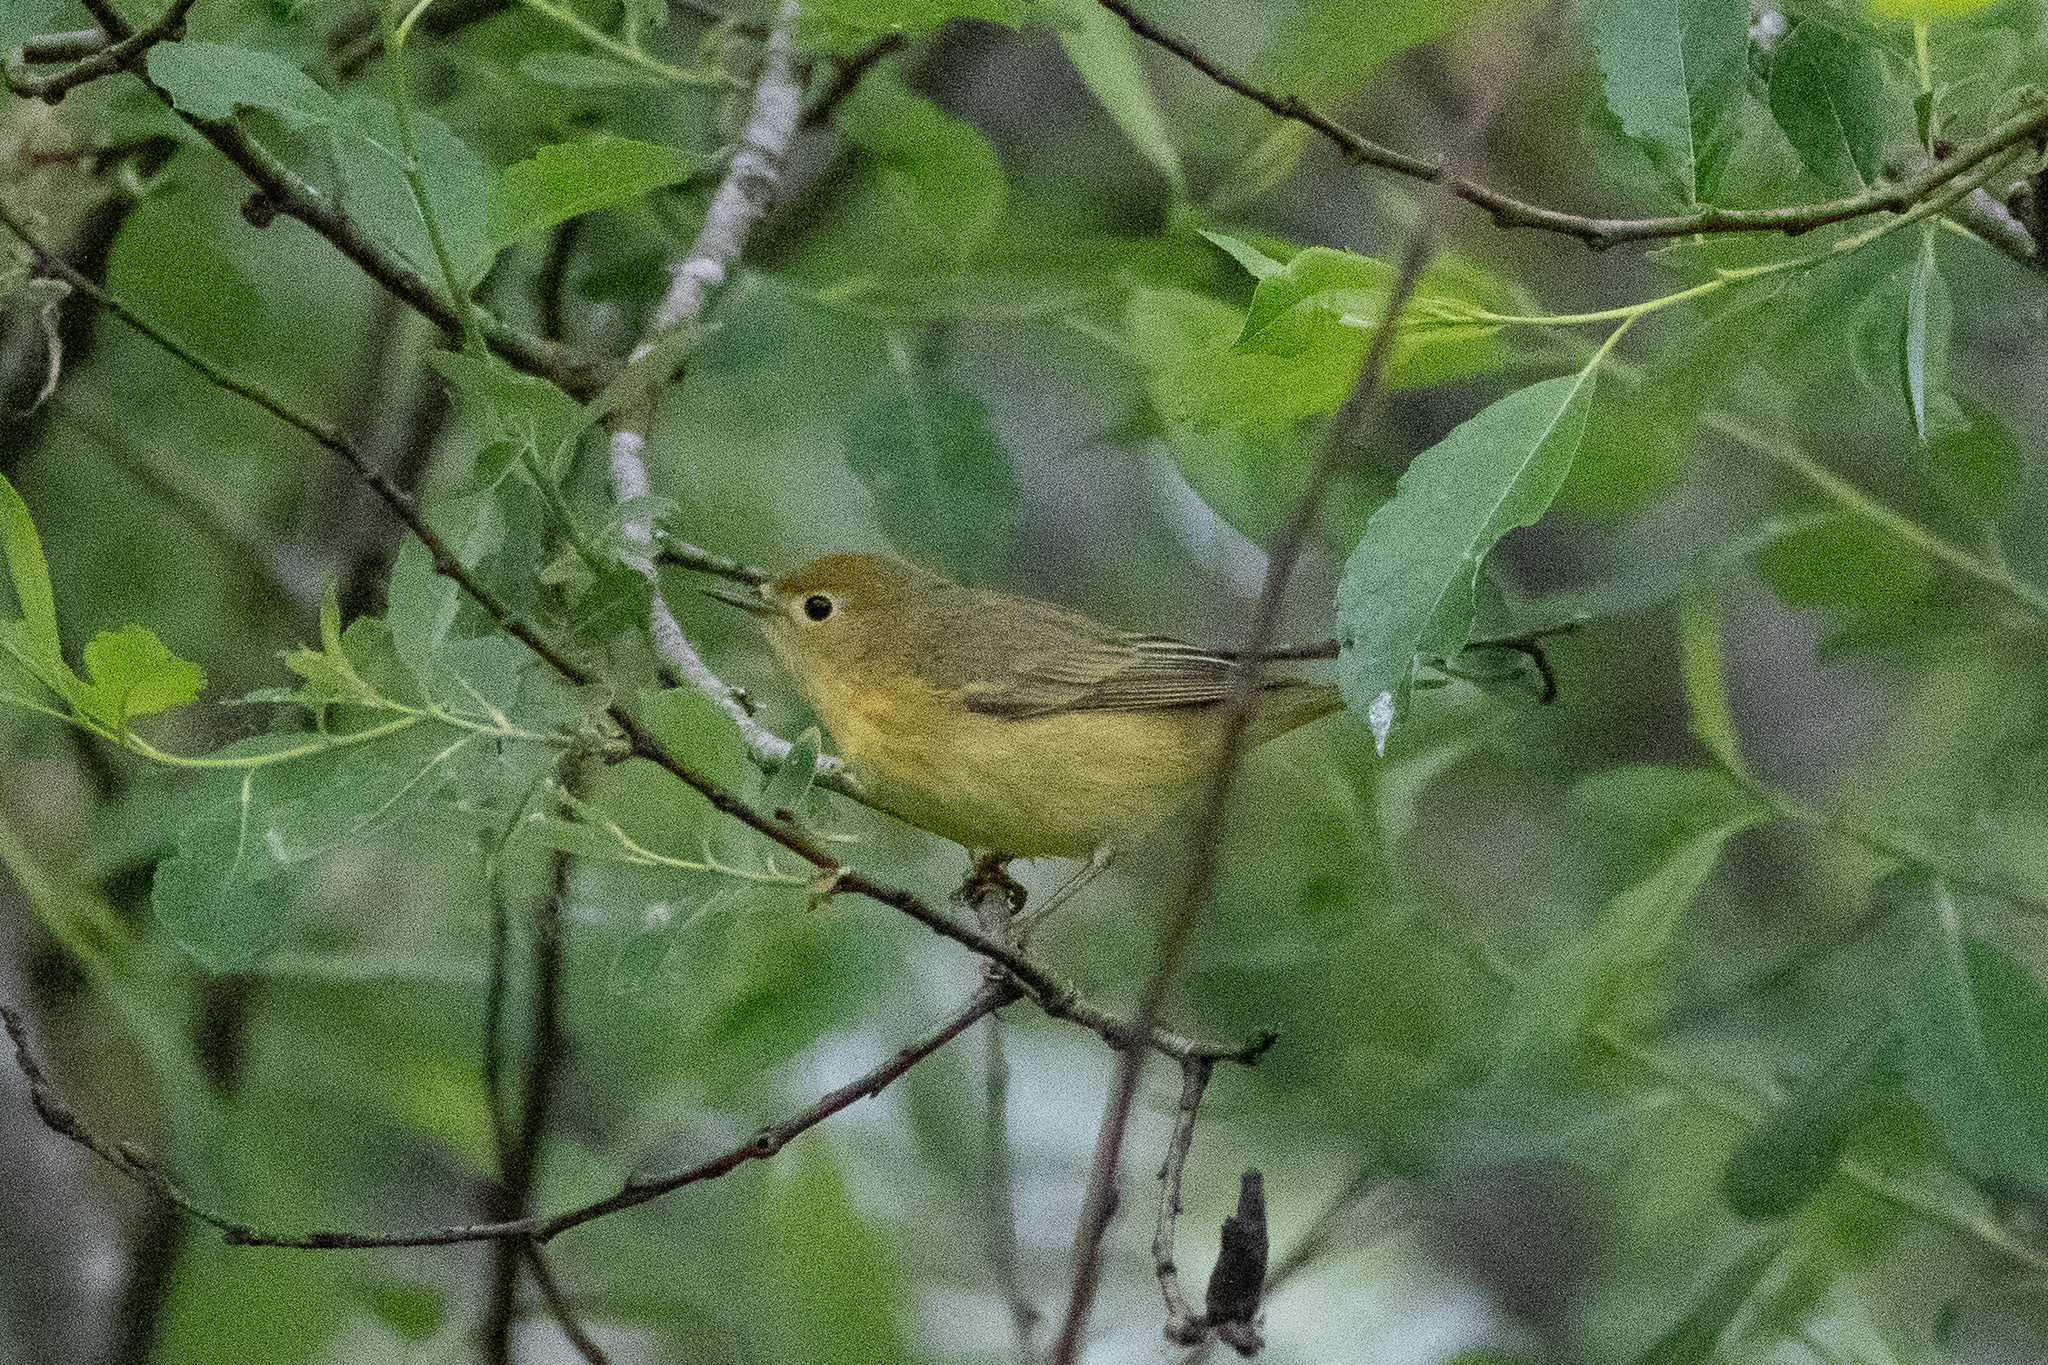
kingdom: Animalia
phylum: Chordata
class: Aves
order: Passeriformes
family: Parulidae
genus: Setophaga
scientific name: Setophaga petechia
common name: Yellow warbler
